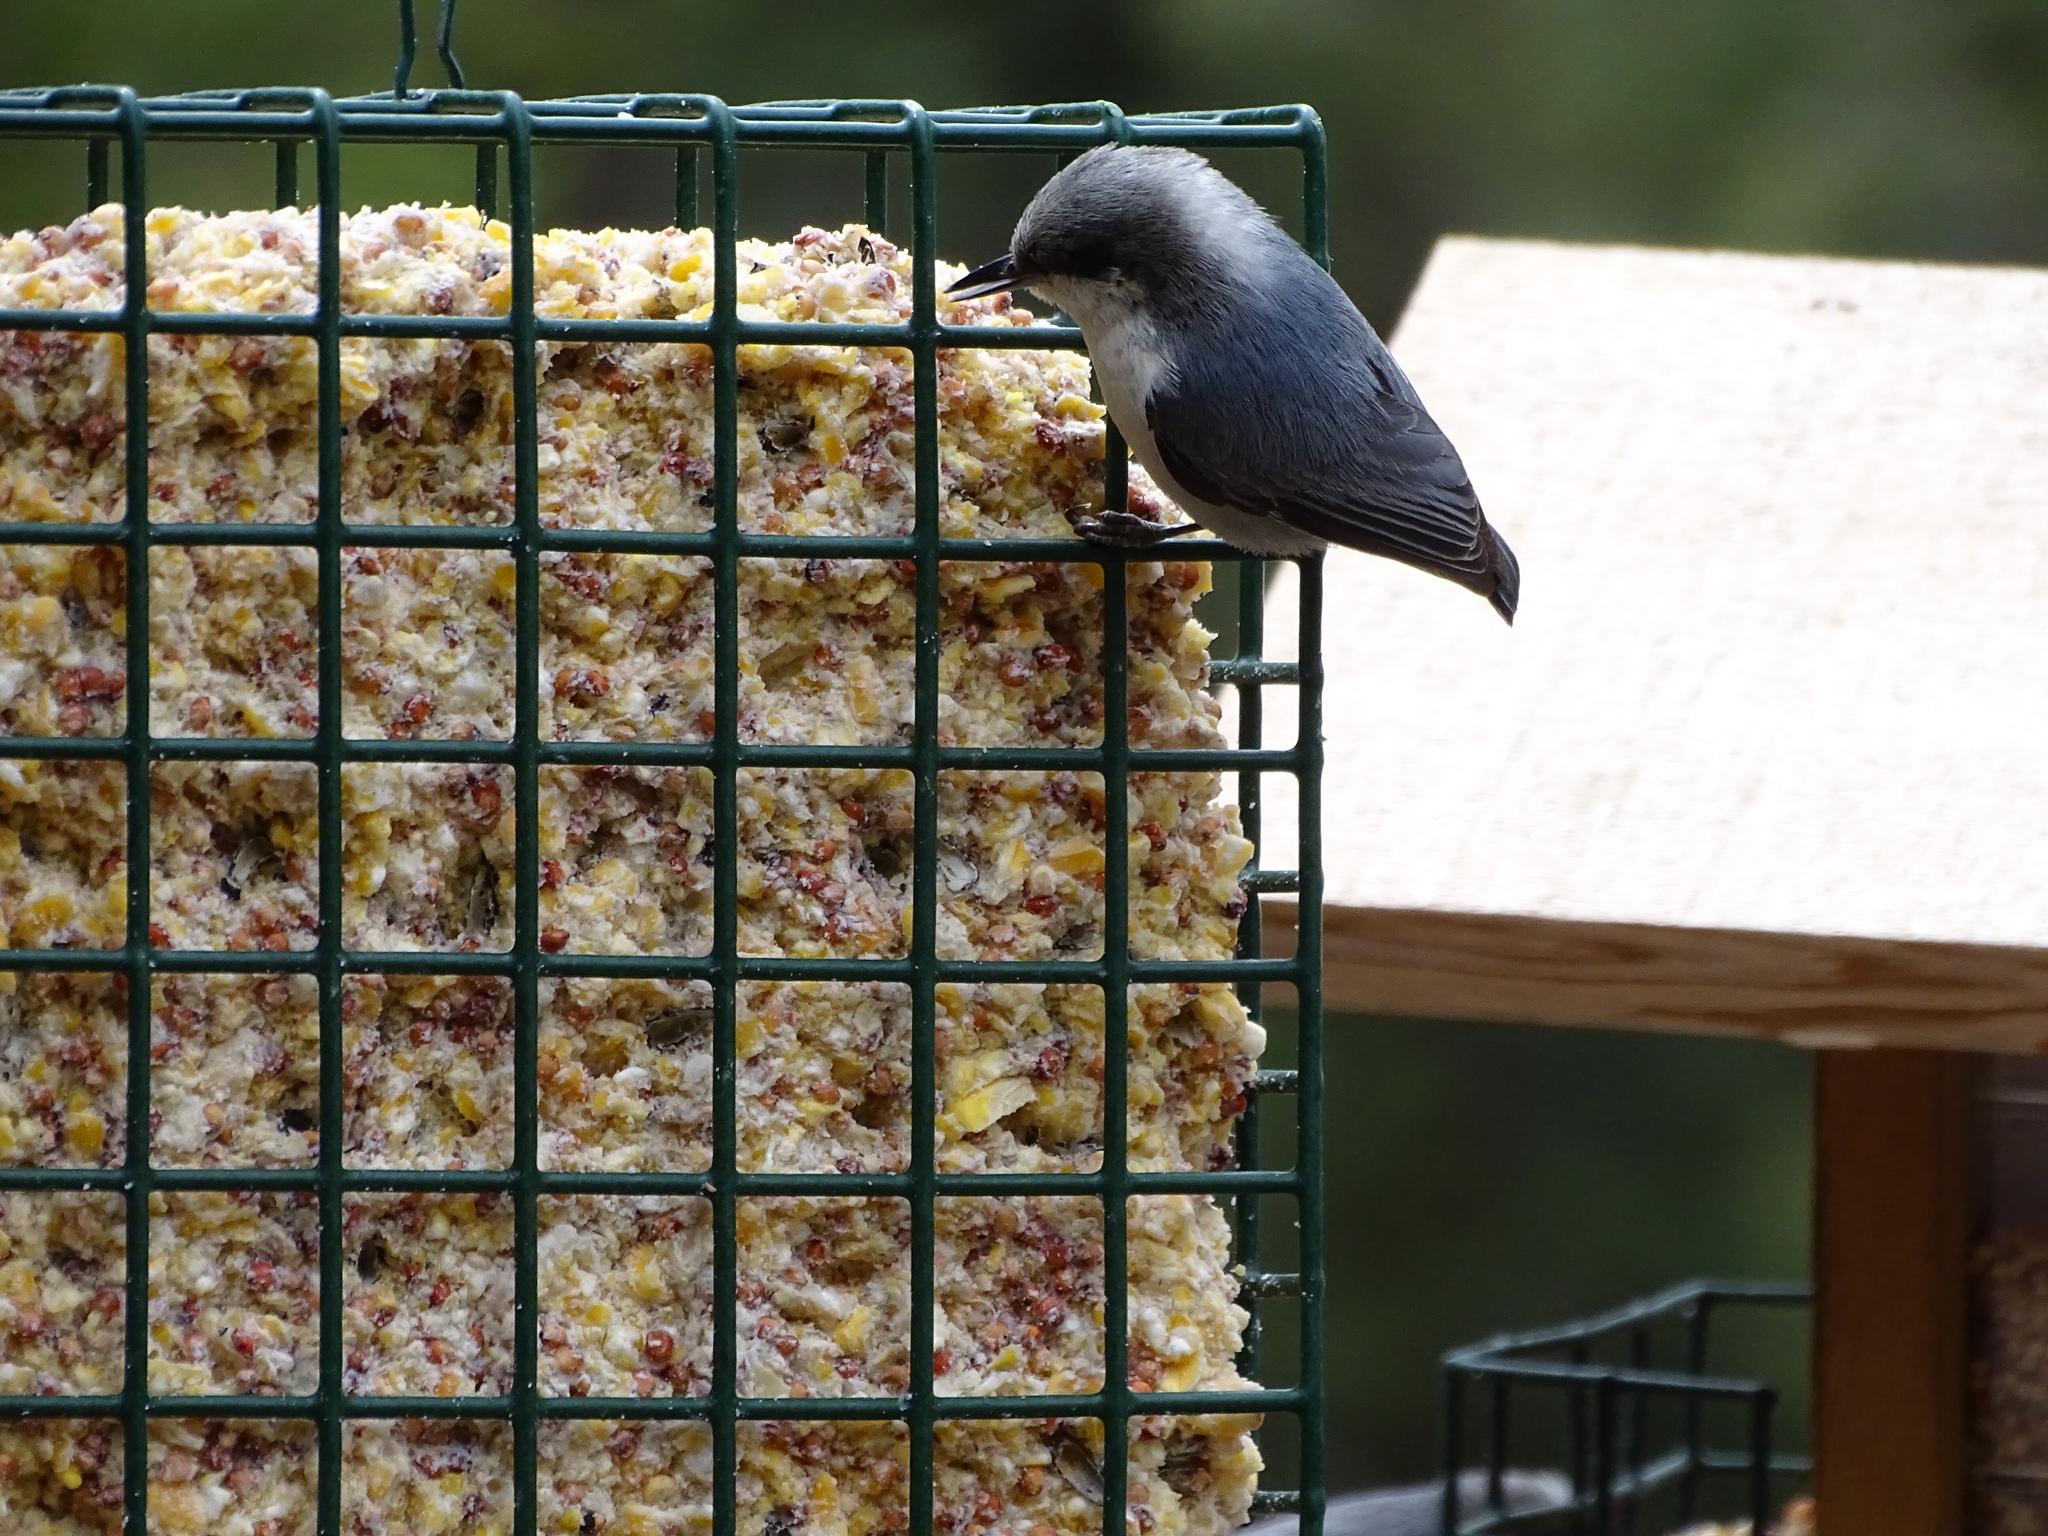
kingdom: Animalia
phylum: Chordata
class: Aves
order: Passeriformes
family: Sittidae
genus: Sitta
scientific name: Sitta pygmaea
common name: Pygmy nuthatch
